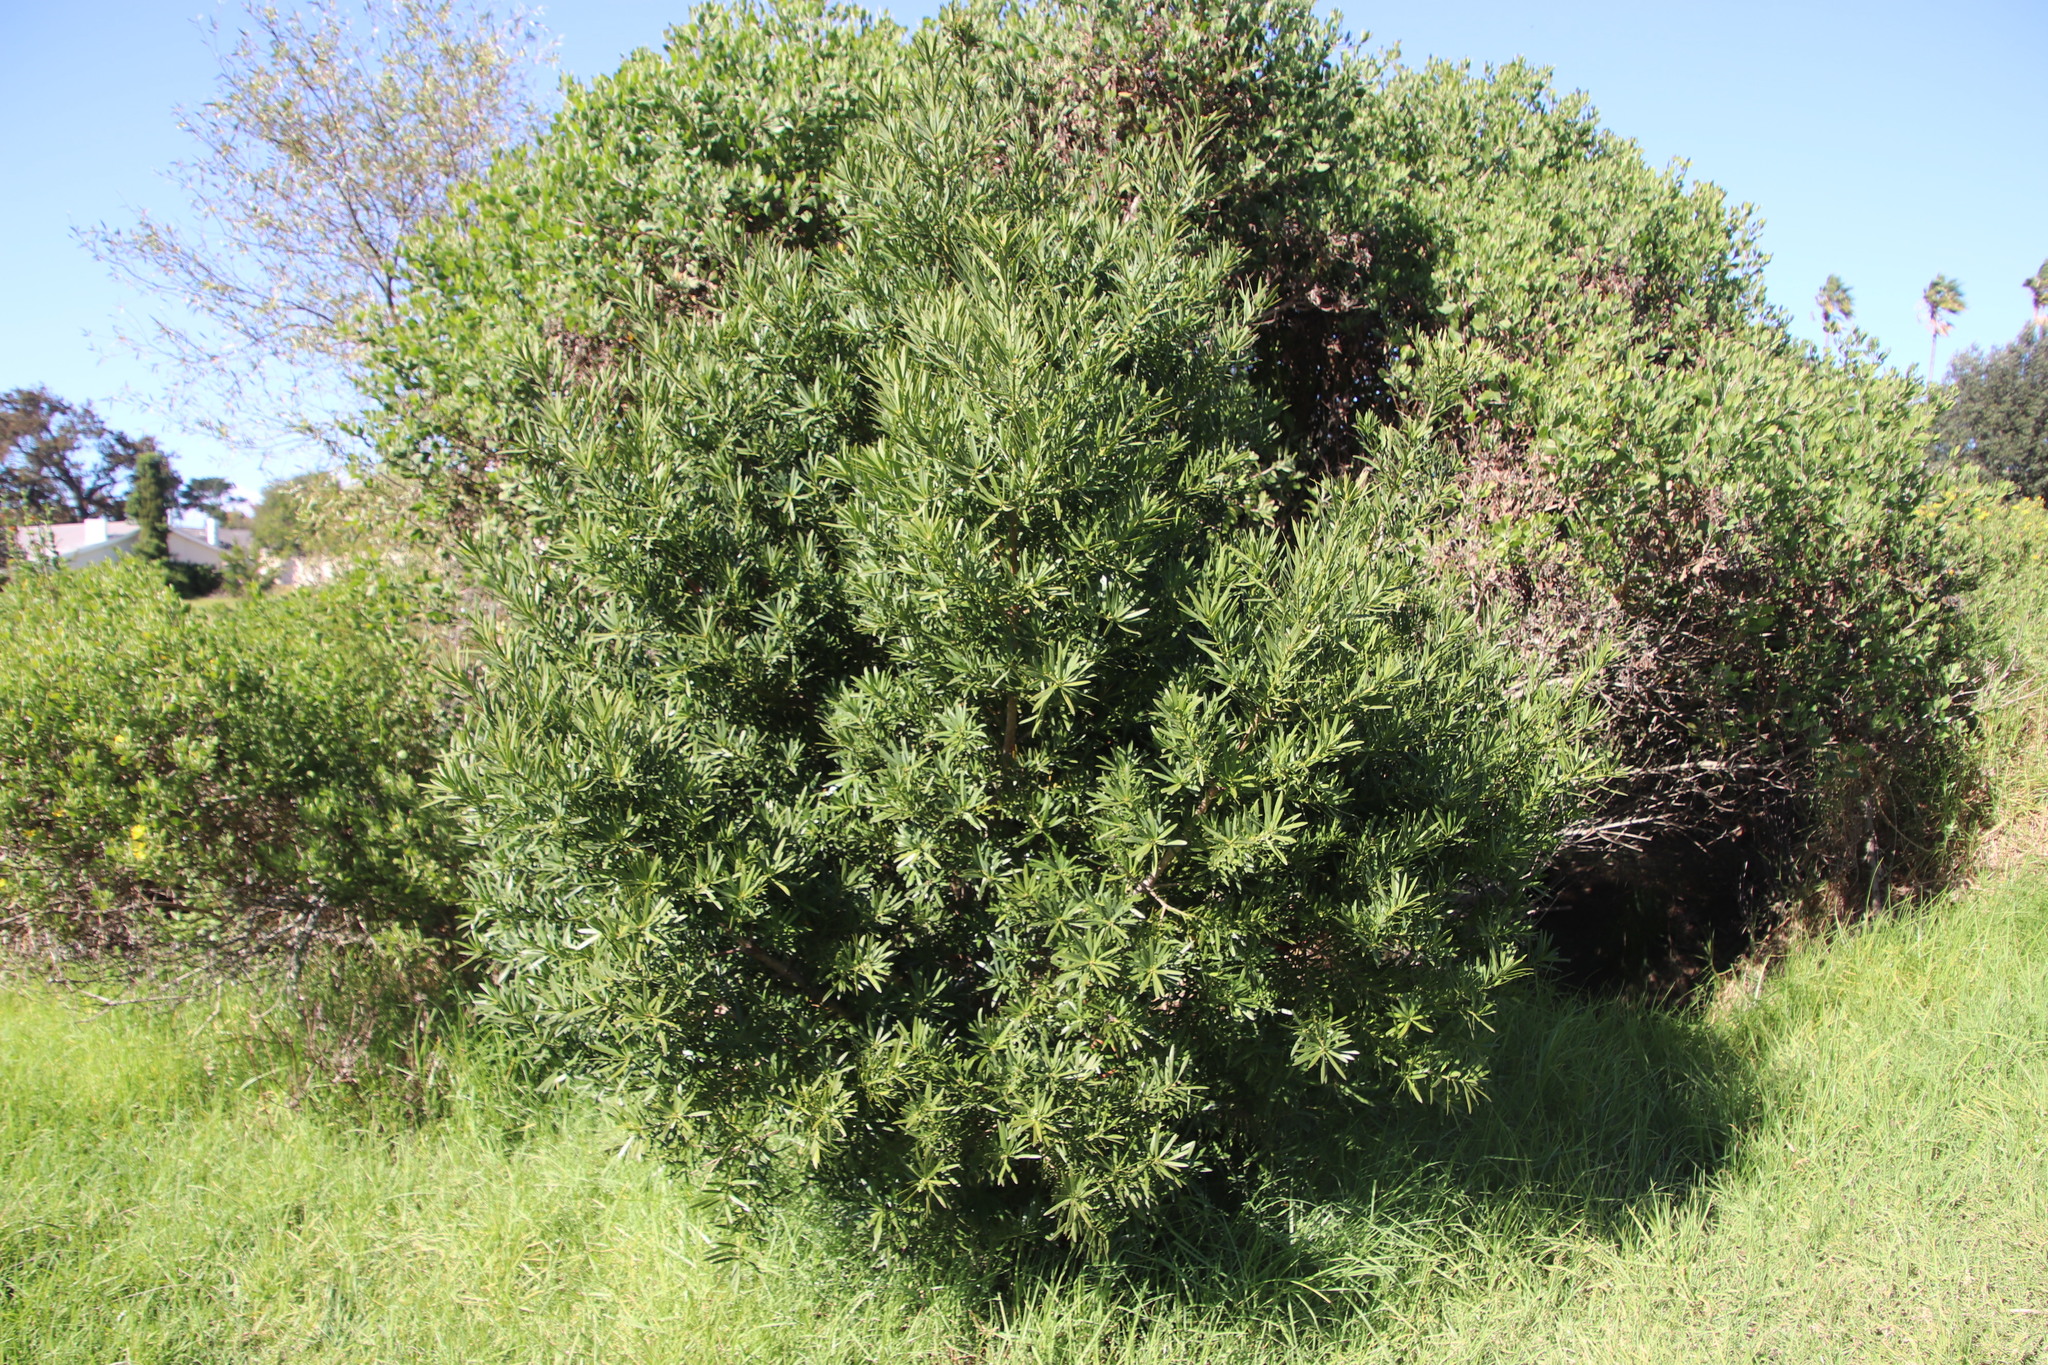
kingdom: Plantae
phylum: Tracheophyta
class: Pinopsida
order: Pinales
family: Podocarpaceae
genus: Podocarpus
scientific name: Podocarpus latifolius
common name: True yellowwood
